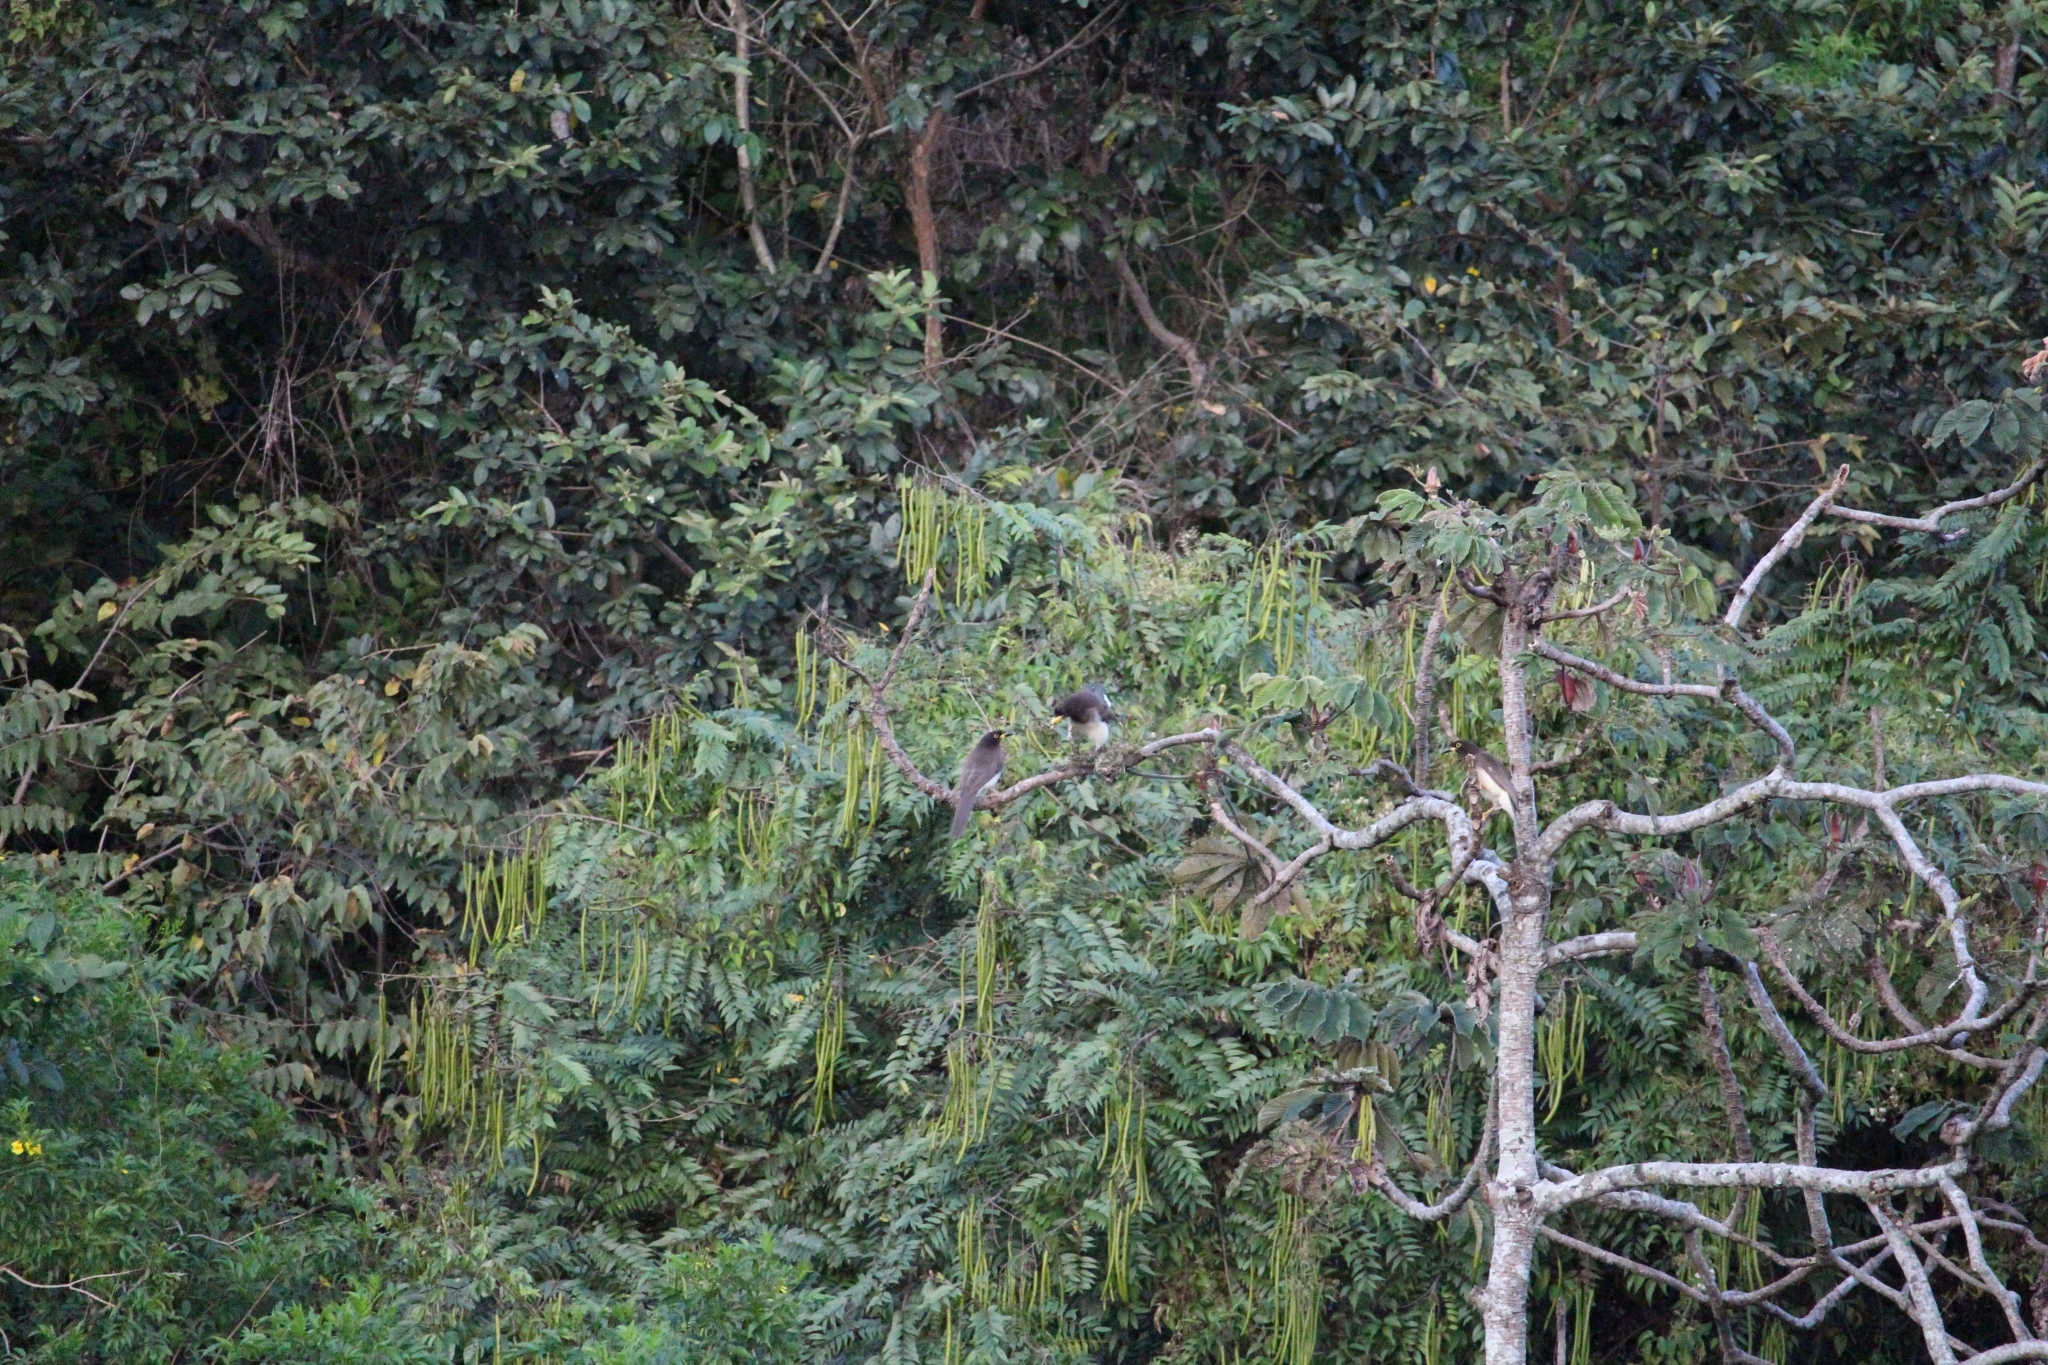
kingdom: Animalia
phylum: Chordata
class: Aves
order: Passeriformes
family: Corvidae
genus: Psilorhinus
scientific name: Psilorhinus morio
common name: Brown jay
